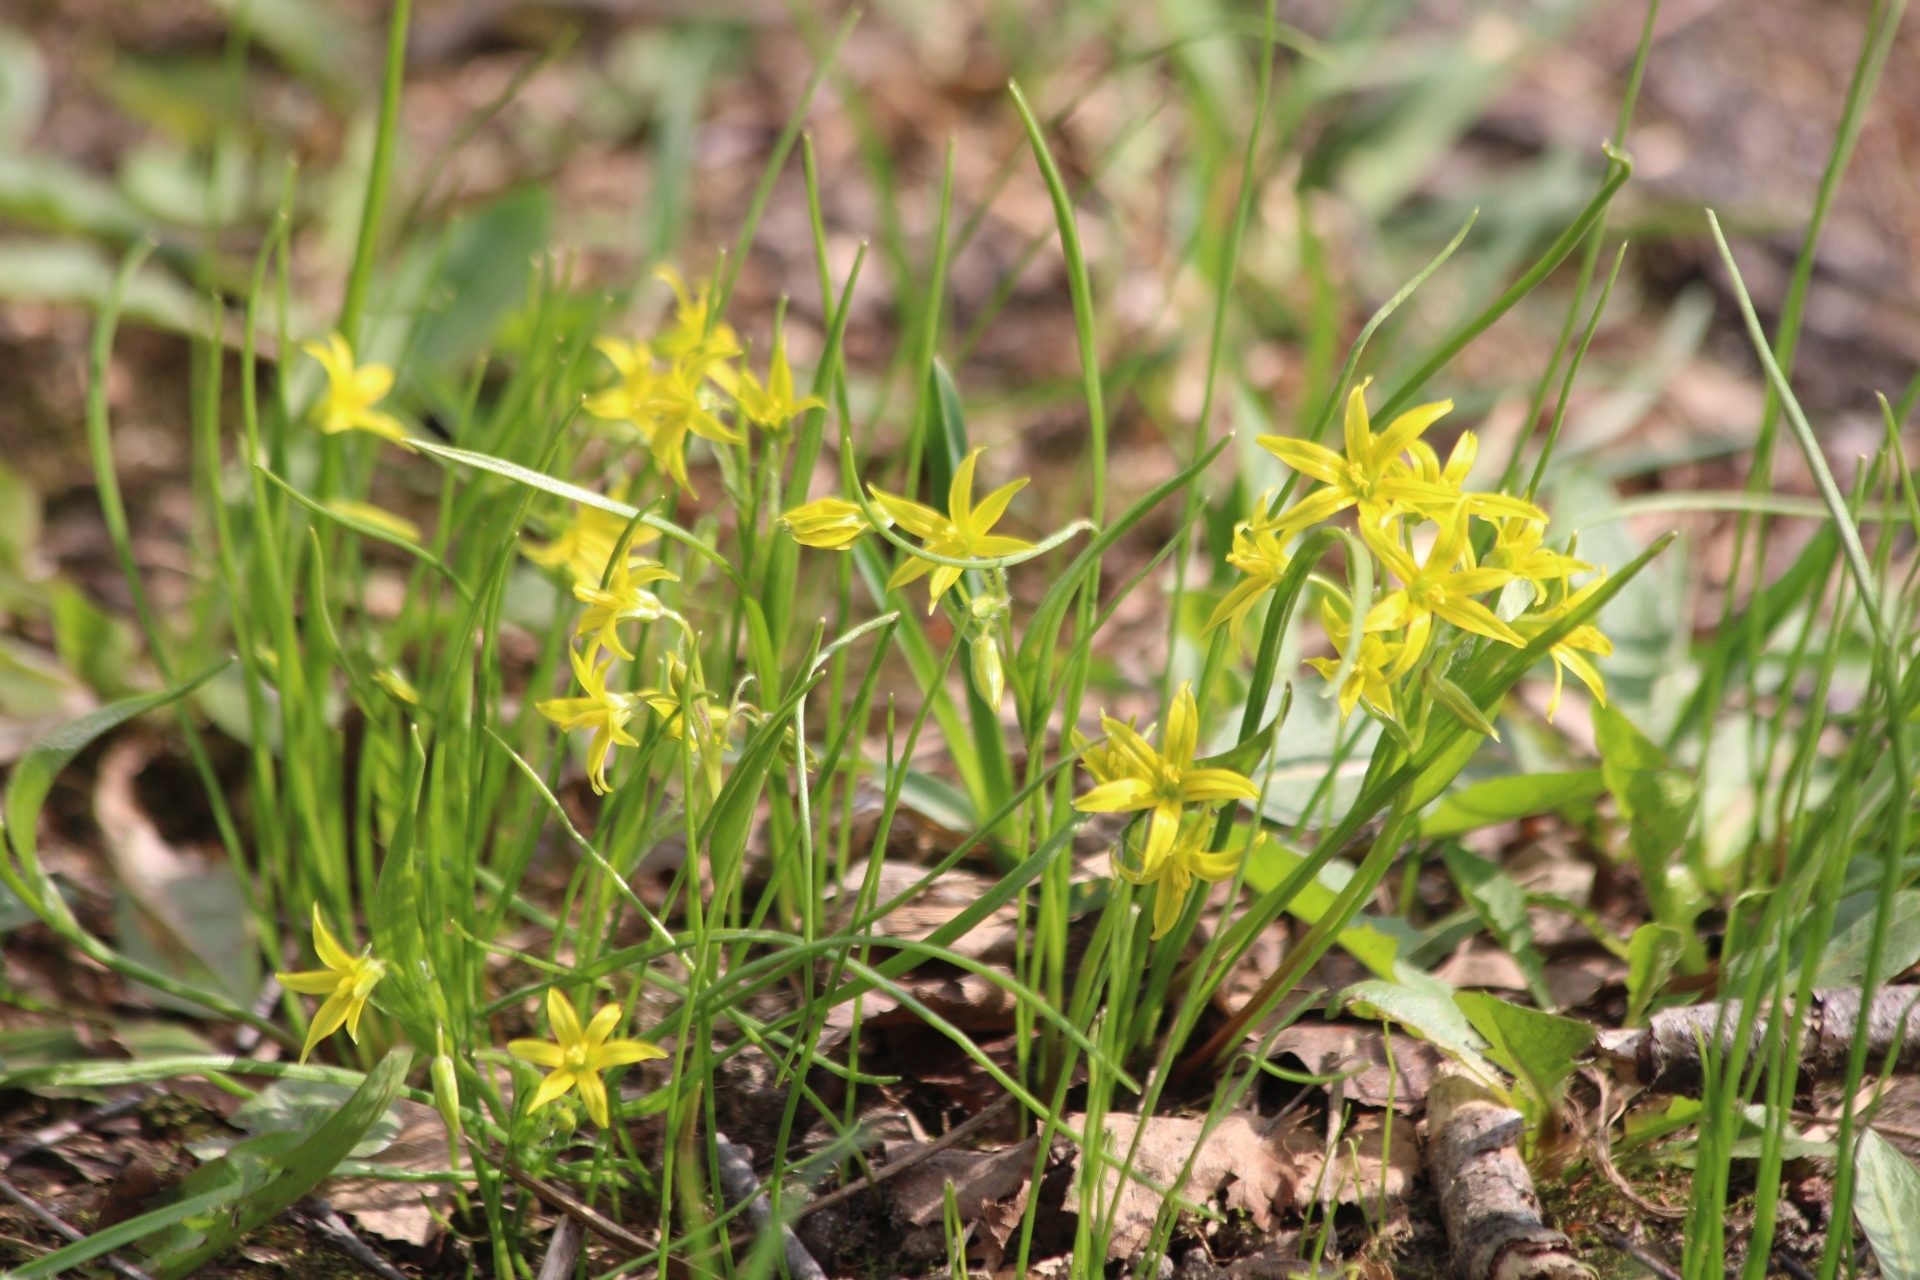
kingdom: Plantae
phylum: Tracheophyta
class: Liliopsida
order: Liliales
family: Liliaceae
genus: Gagea
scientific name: Gagea minima
